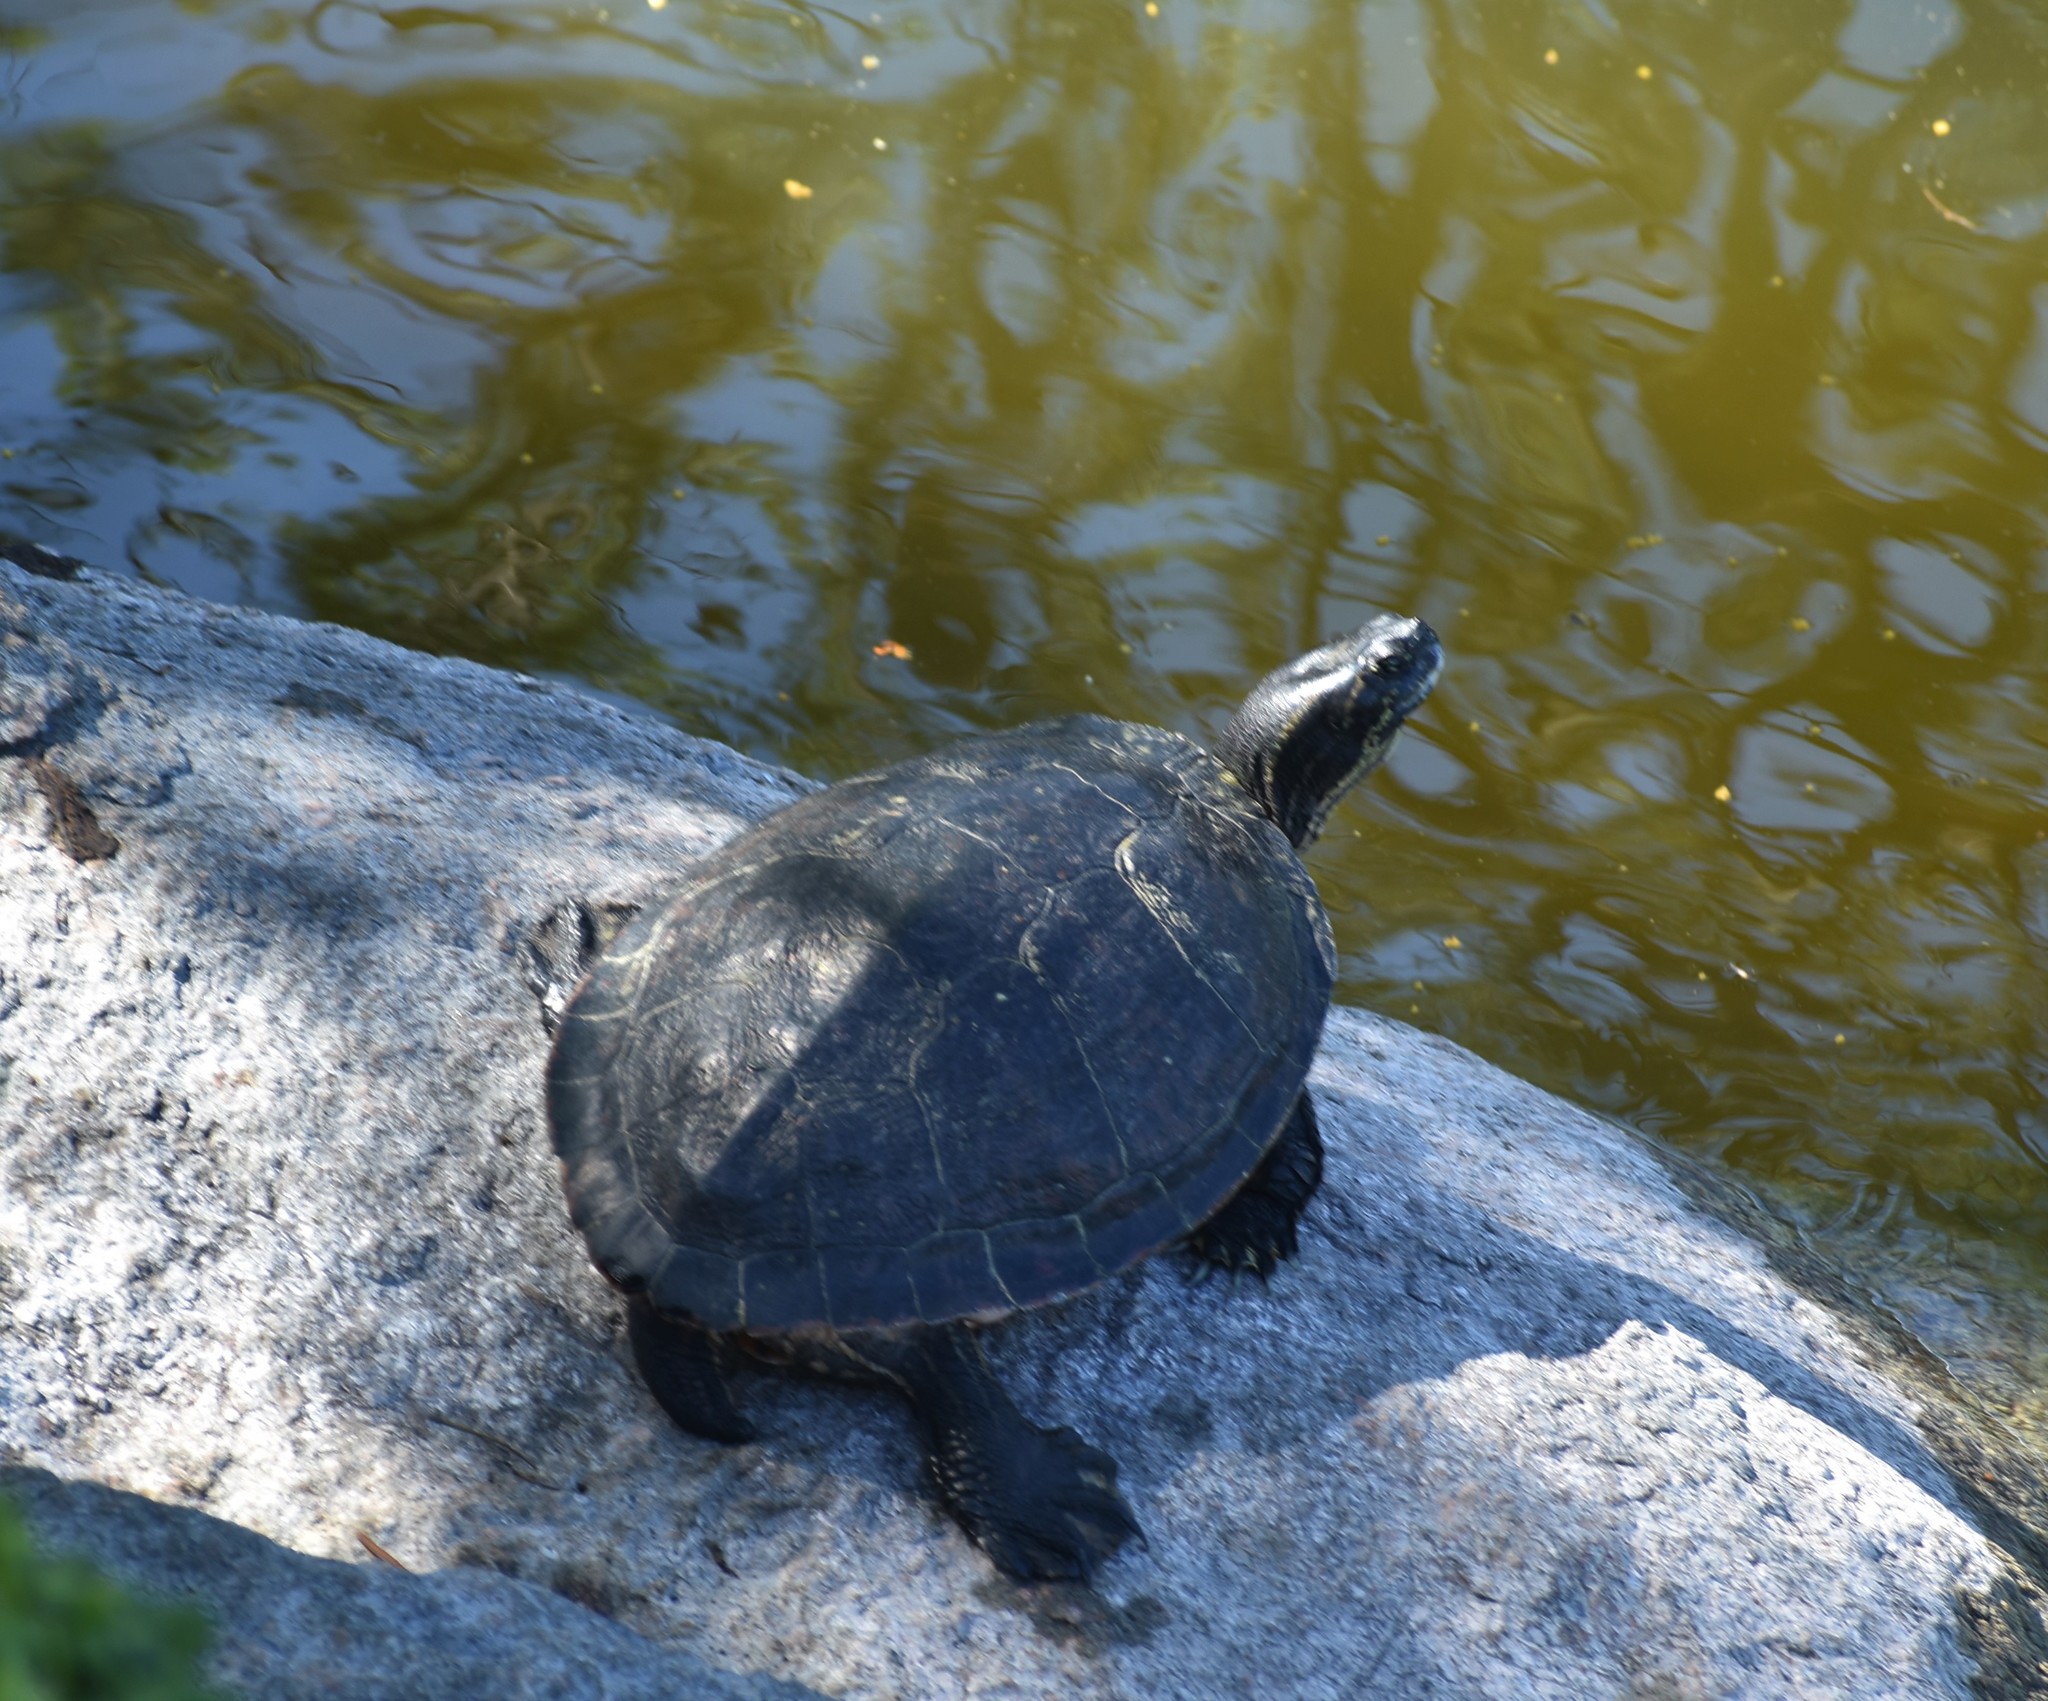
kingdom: Animalia
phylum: Chordata
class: Testudines
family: Emydidae
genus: Trachemys
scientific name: Trachemys scripta
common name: Slider
